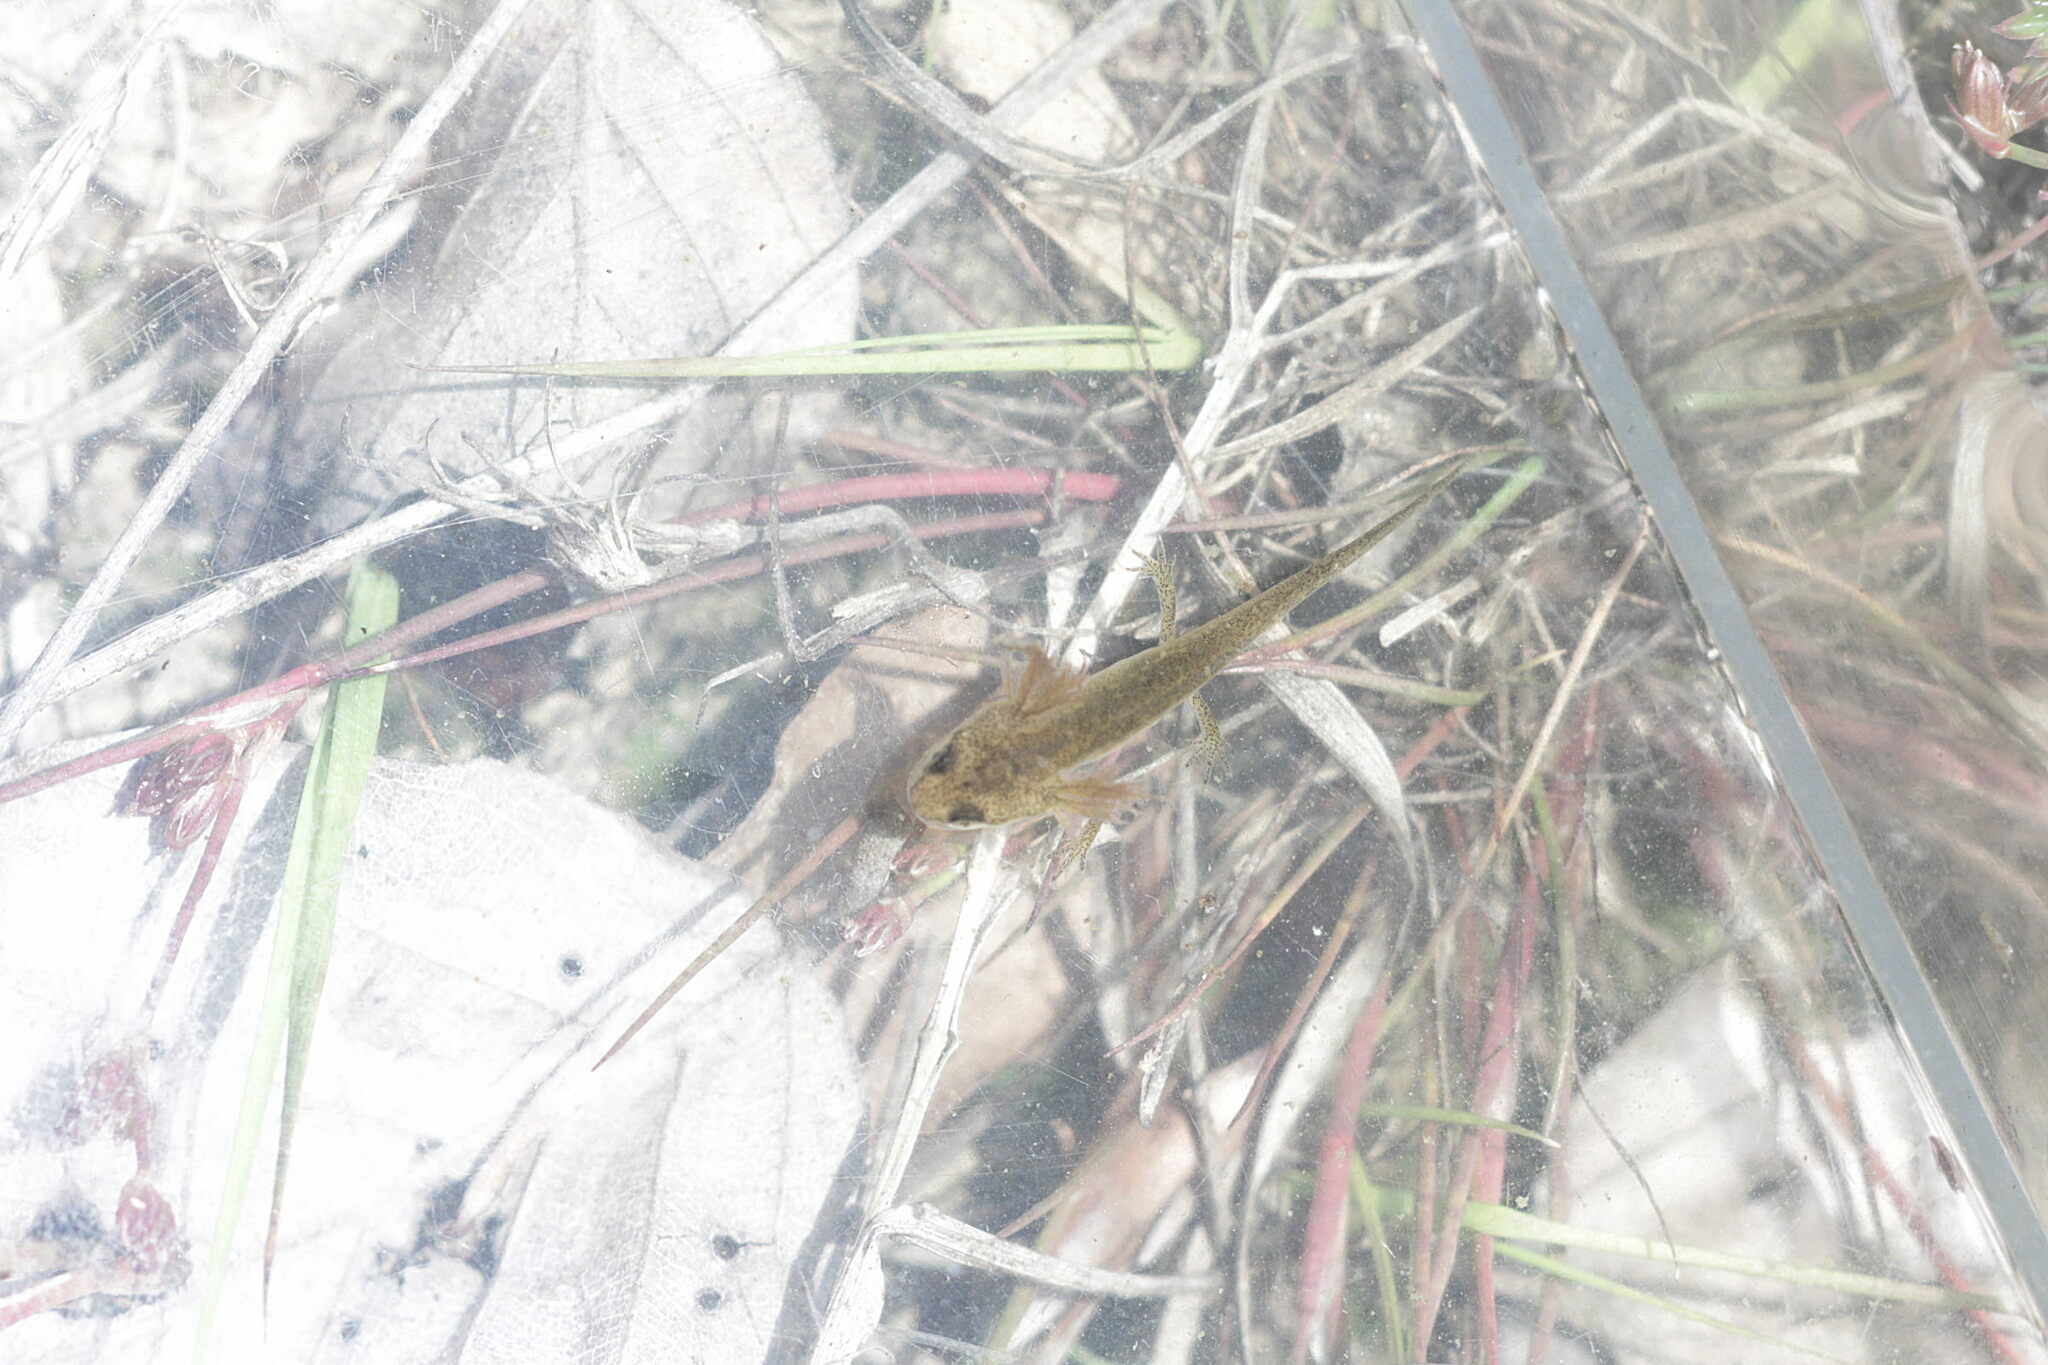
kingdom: Animalia
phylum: Chordata
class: Amphibia
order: Caudata
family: Salamandridae
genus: Lissotriton
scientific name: Lissotriton
